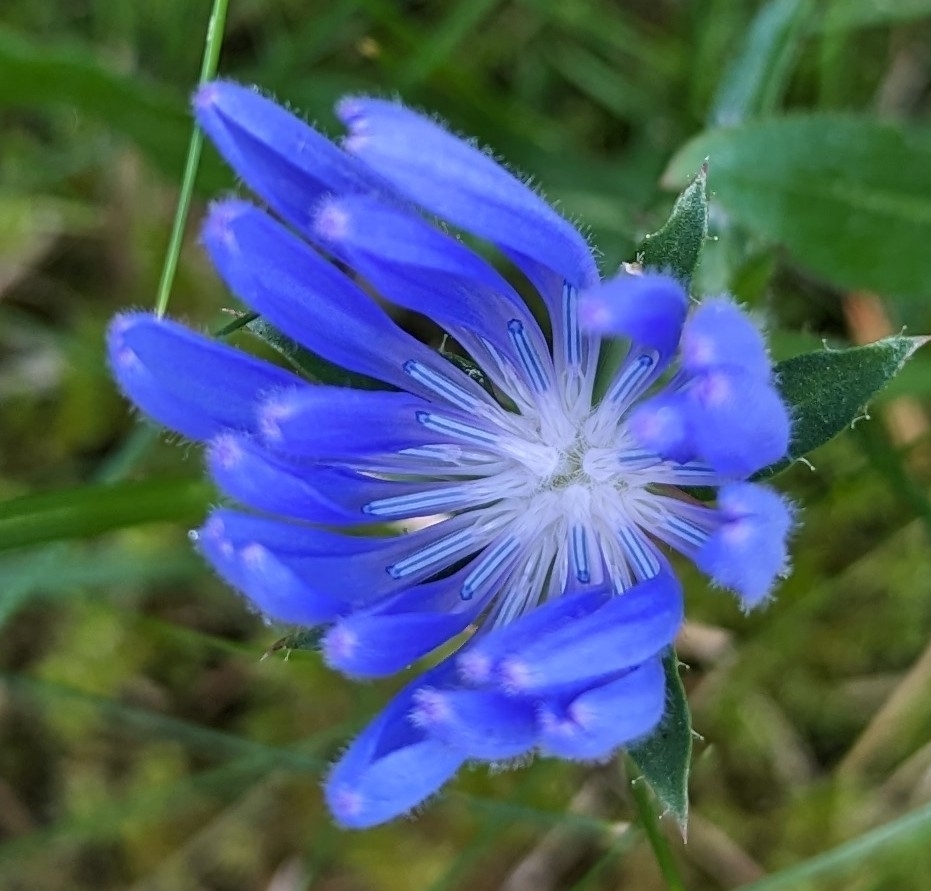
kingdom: Plantae
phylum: Tracheophyta
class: Magnoliopsida
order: Asterales
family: Asteraceae
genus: Cichorium
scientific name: Cichorium intybus
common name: Chicory
